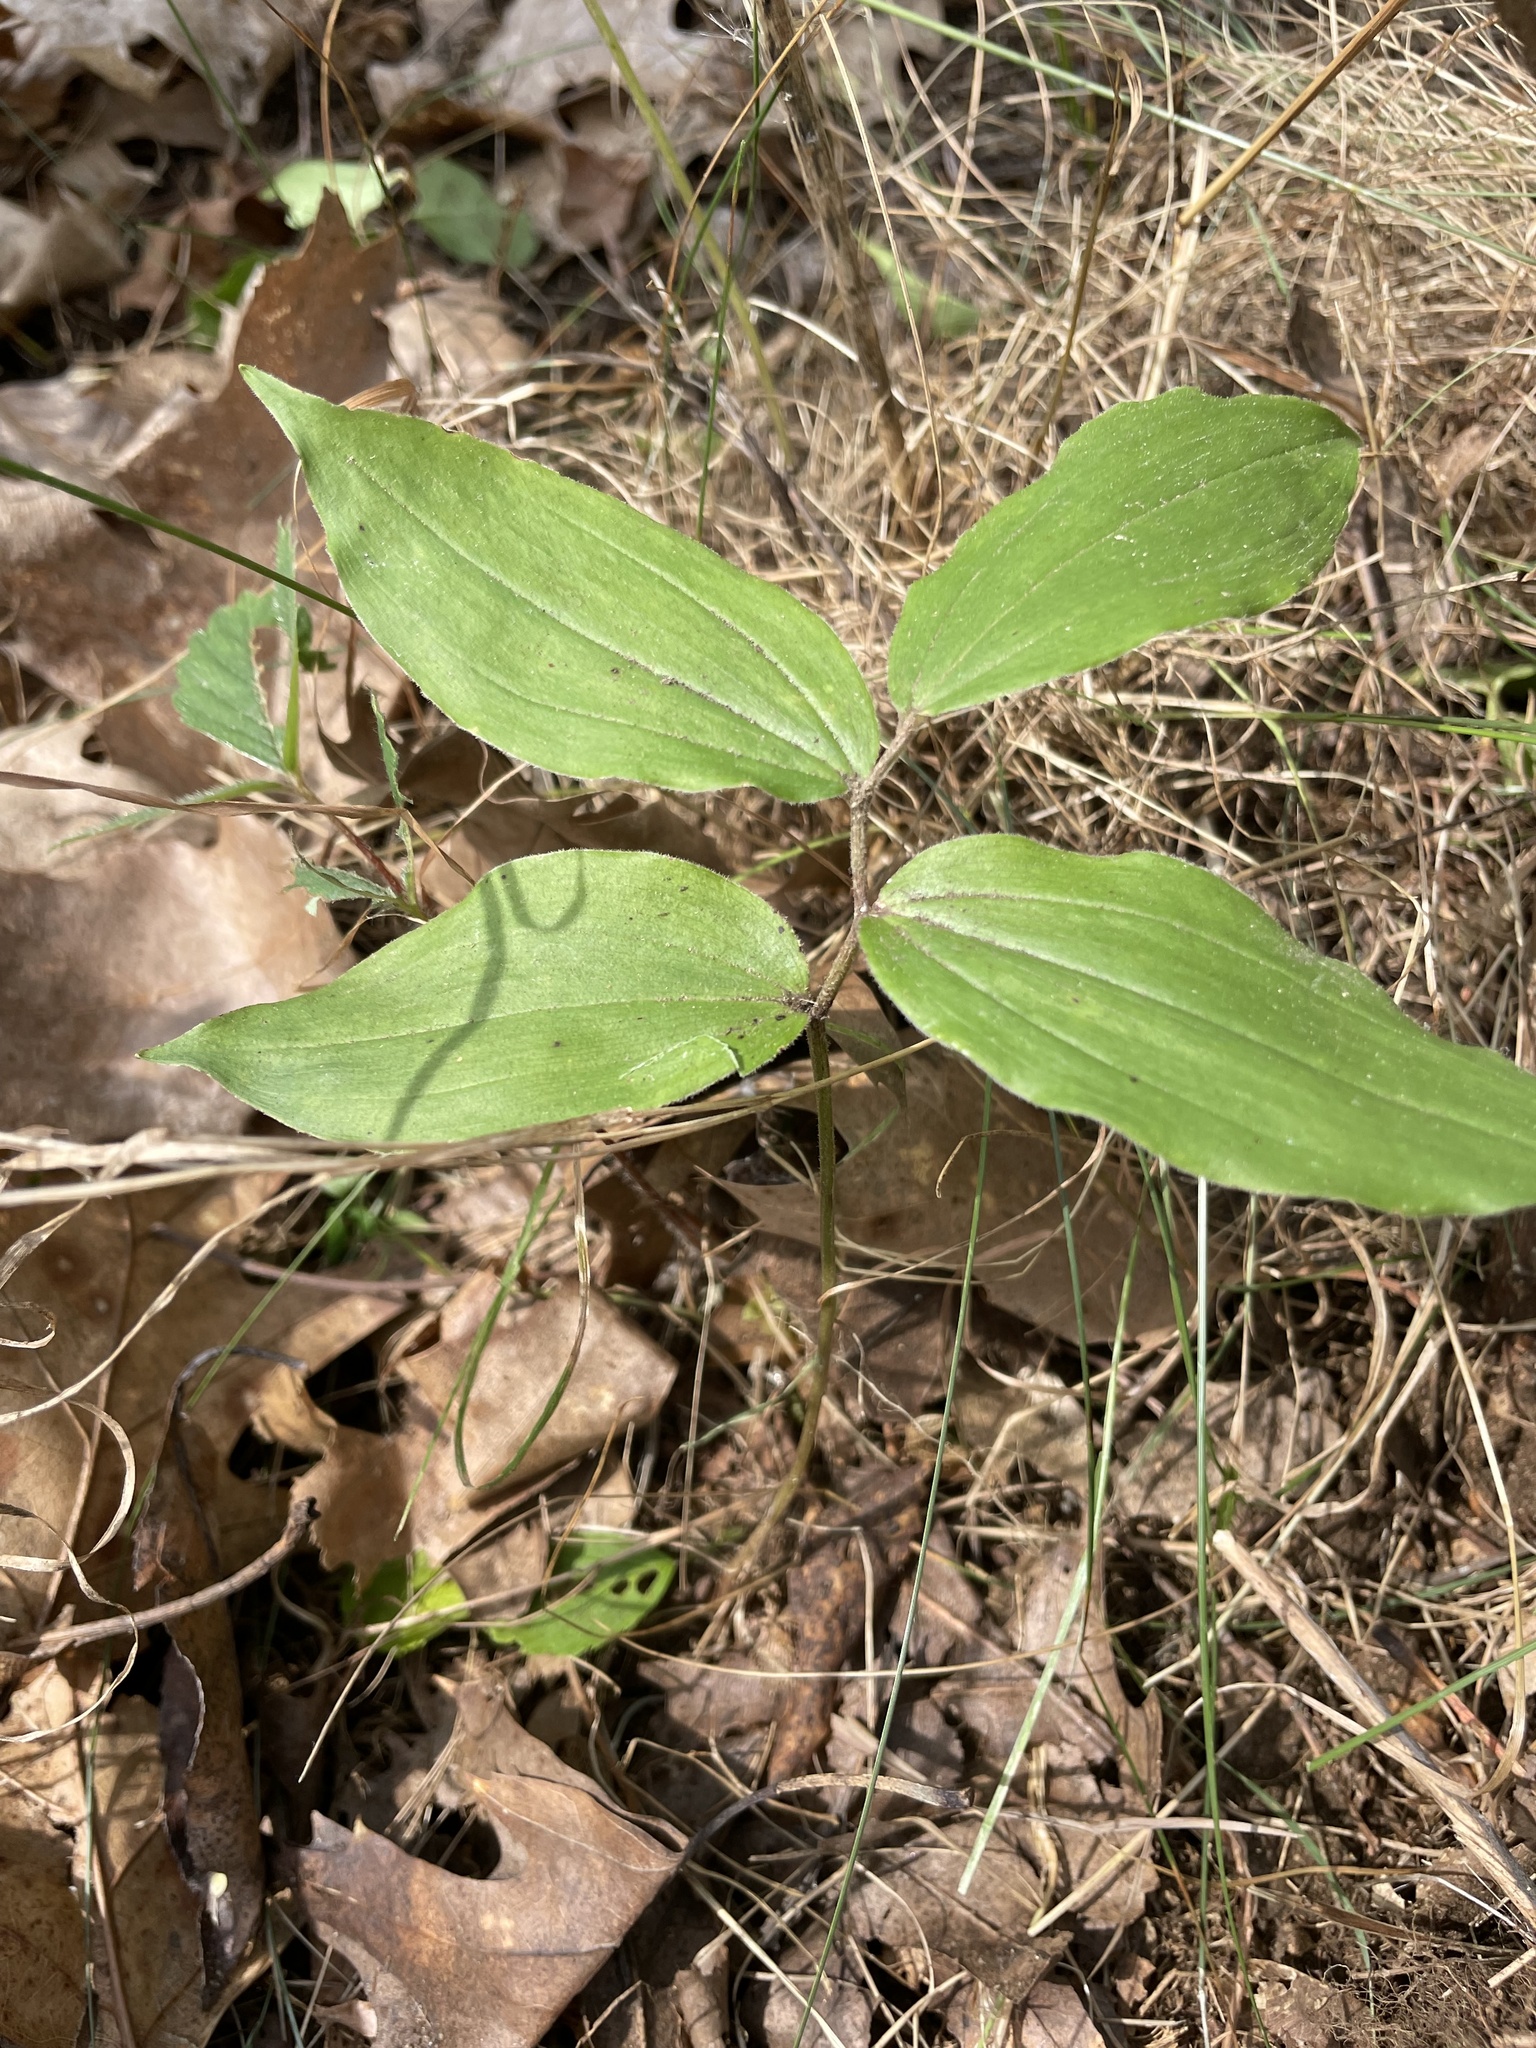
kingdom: Plantae
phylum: Tracheophyta
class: Liliopsida
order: Asparagales
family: Asparagaceae
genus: Maianthemum
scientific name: Maianthemum racemosum
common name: False spikenard
